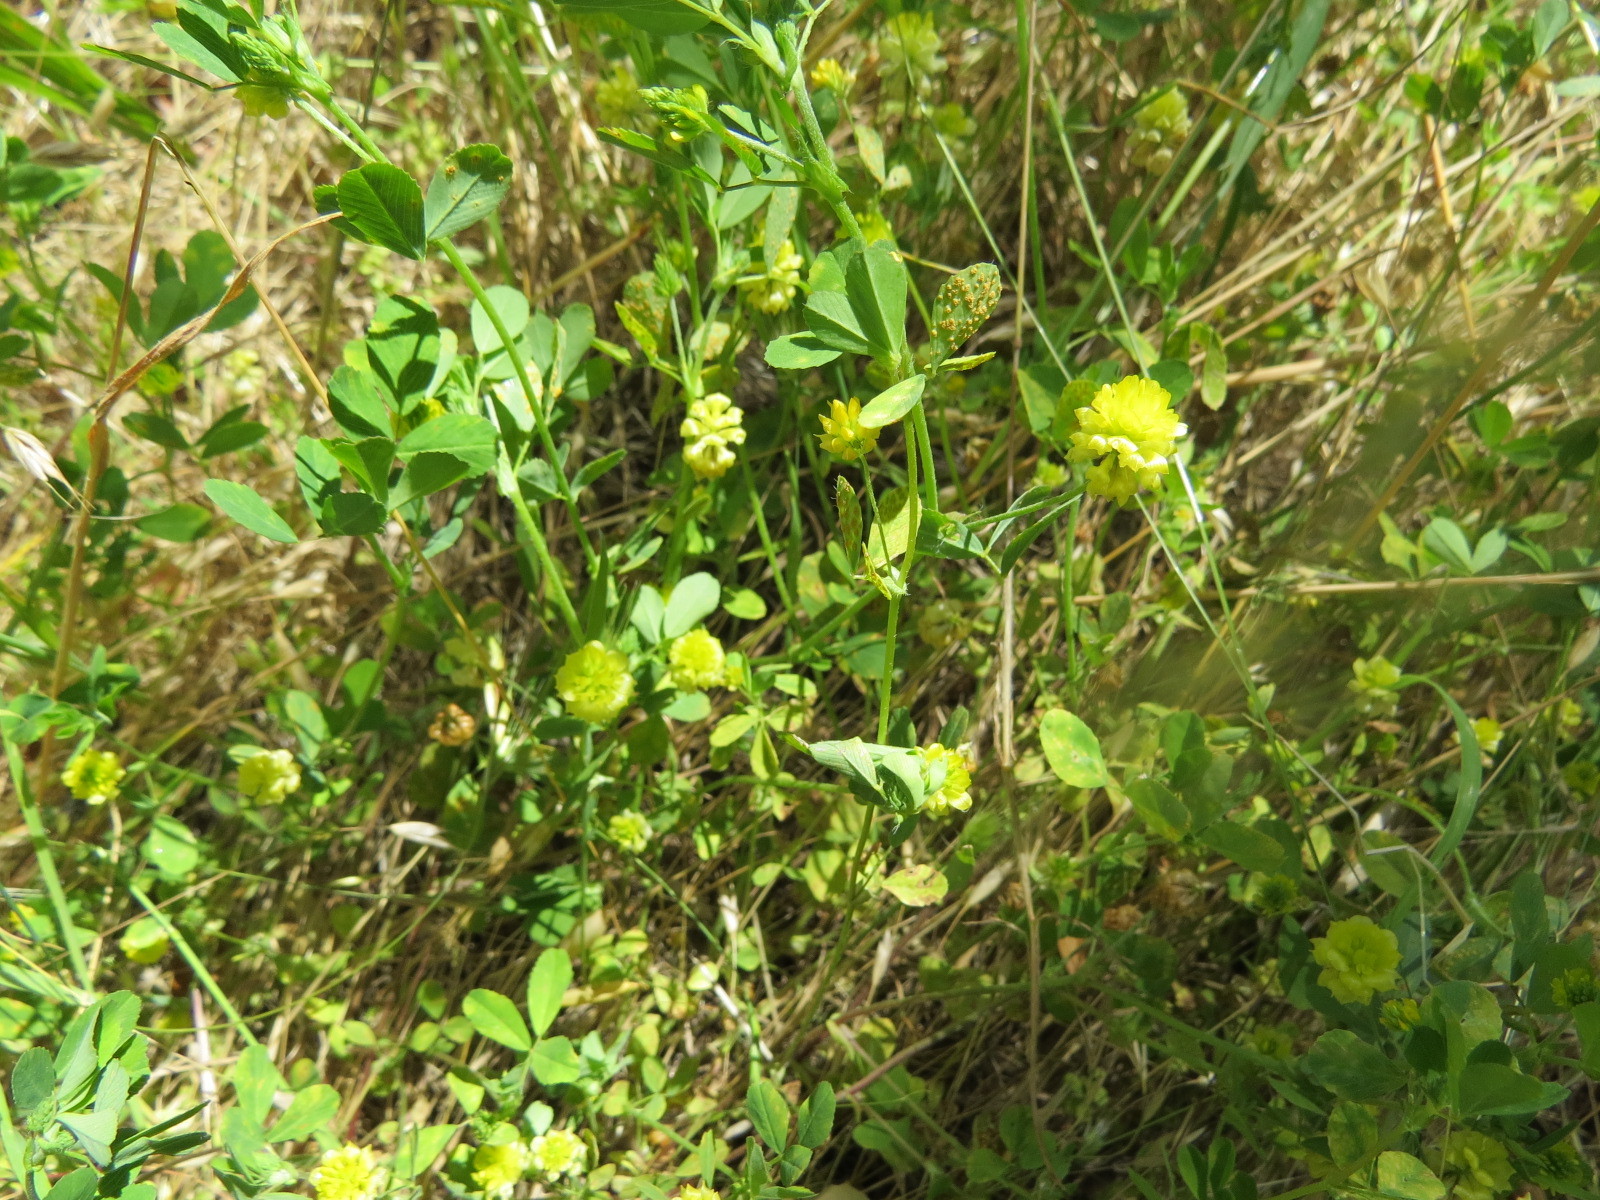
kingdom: Plantae
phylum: Tracheophyta
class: Magnoliopsida
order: Fabales
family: Fabaceae
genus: Trifolium
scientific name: Trifolium campestre
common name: Field clover
